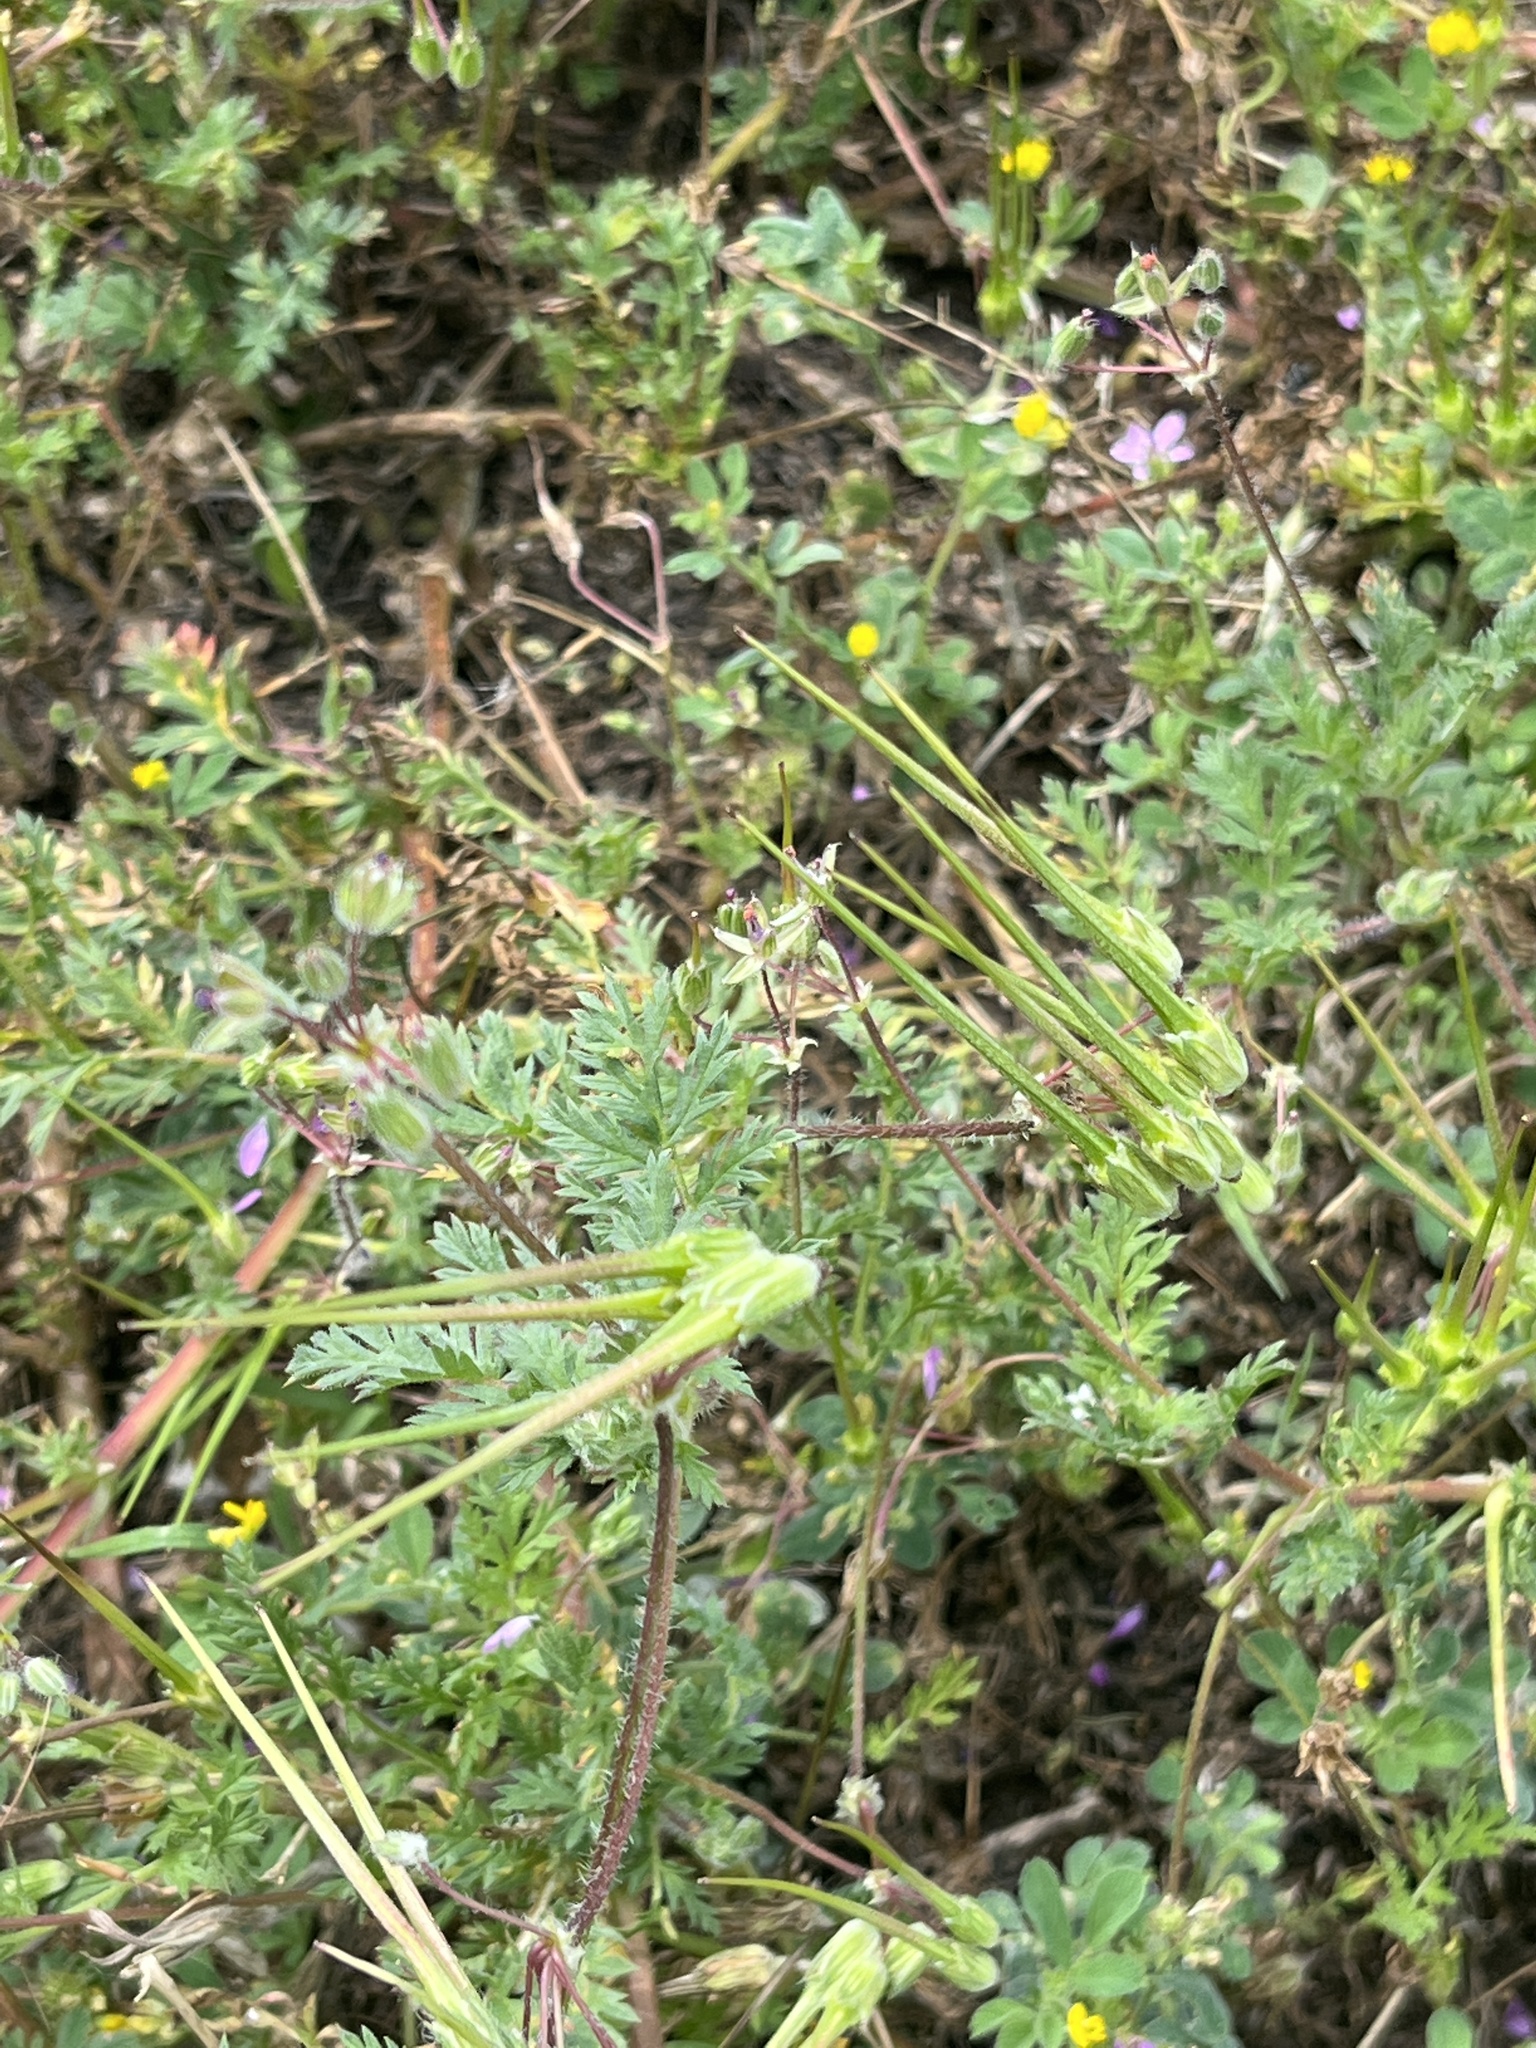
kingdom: Plantae
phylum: Tracheophyta
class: Magnoliopsida
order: Geraniales
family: Geraniaceae
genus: Erodium
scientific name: Erodium cicutarium
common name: Common stork's-bill
